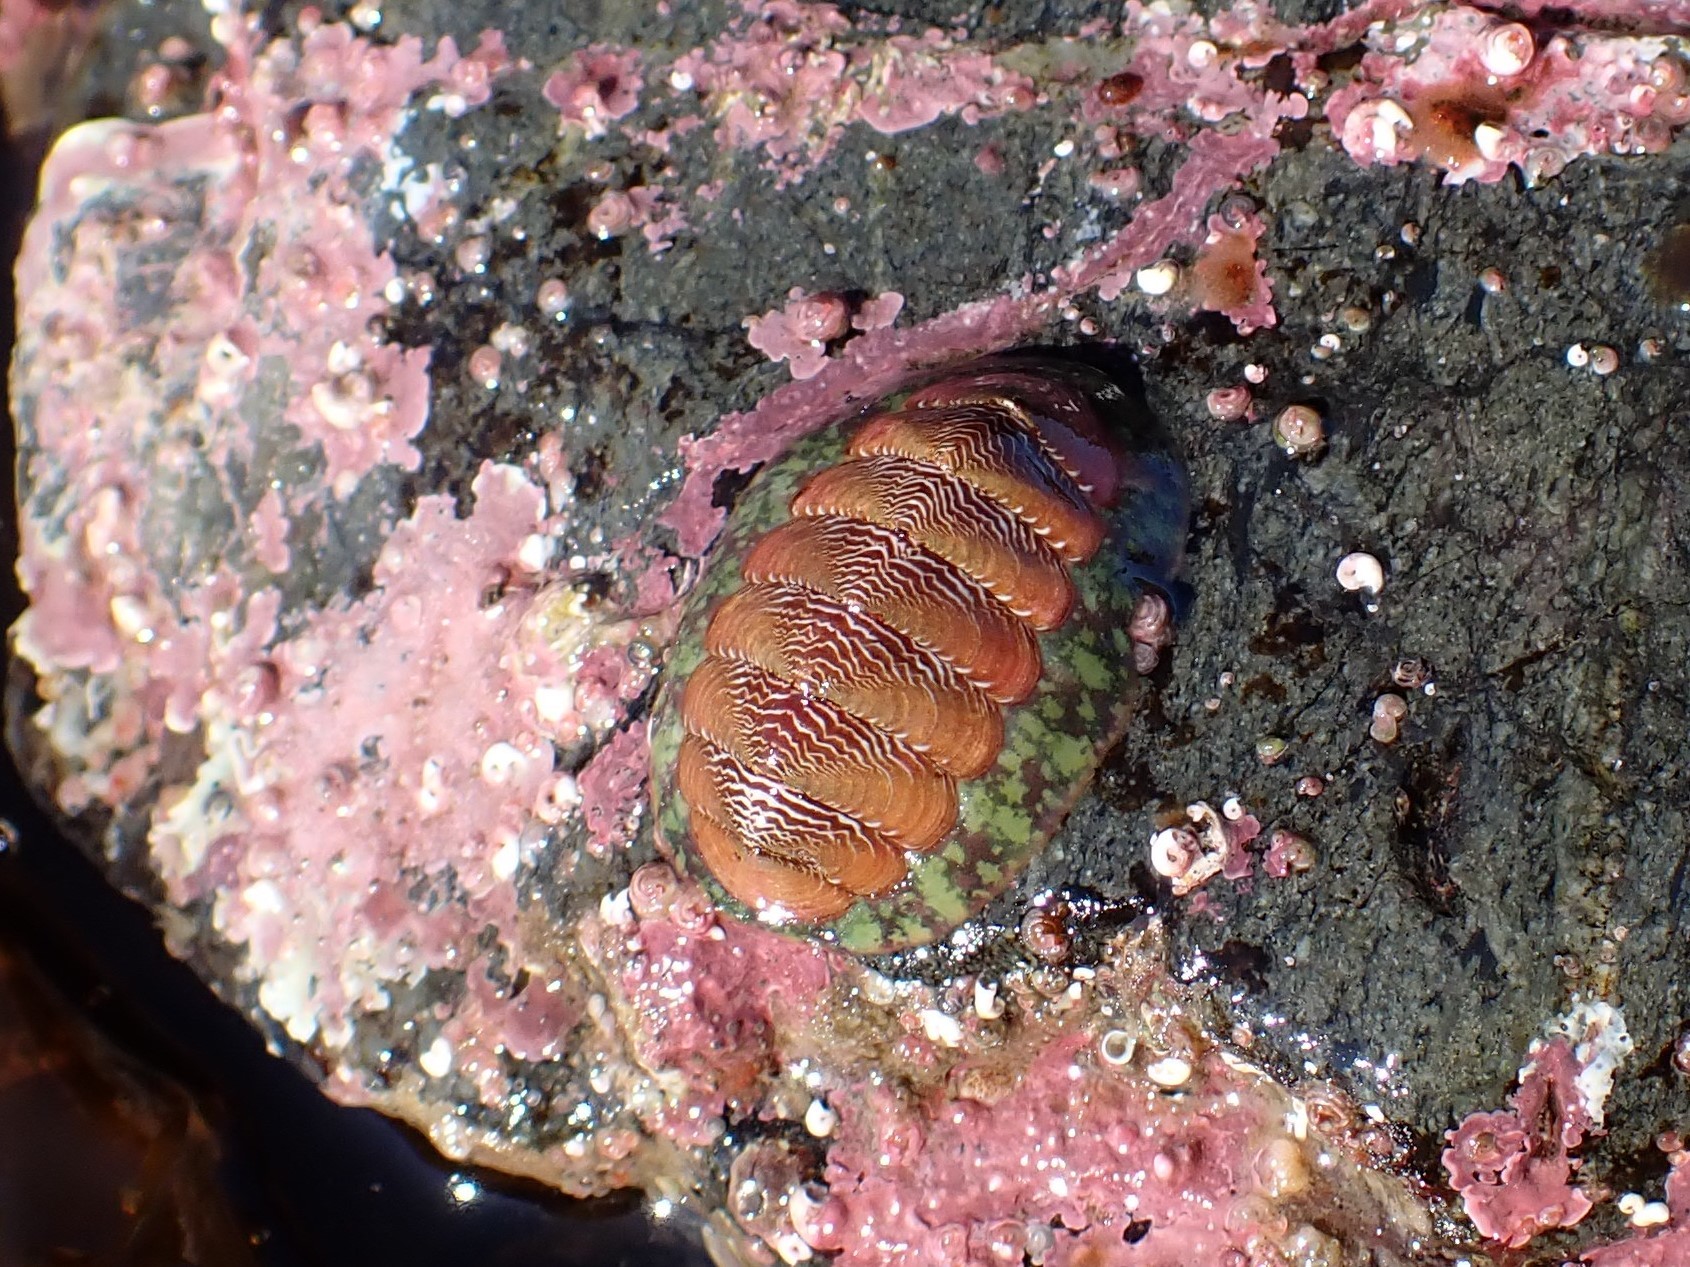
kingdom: Animalia
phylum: Mollusca
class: Polyplacophora
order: Chitonida
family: Tonicellidae
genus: Tonicella
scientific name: Tonicella insignis
